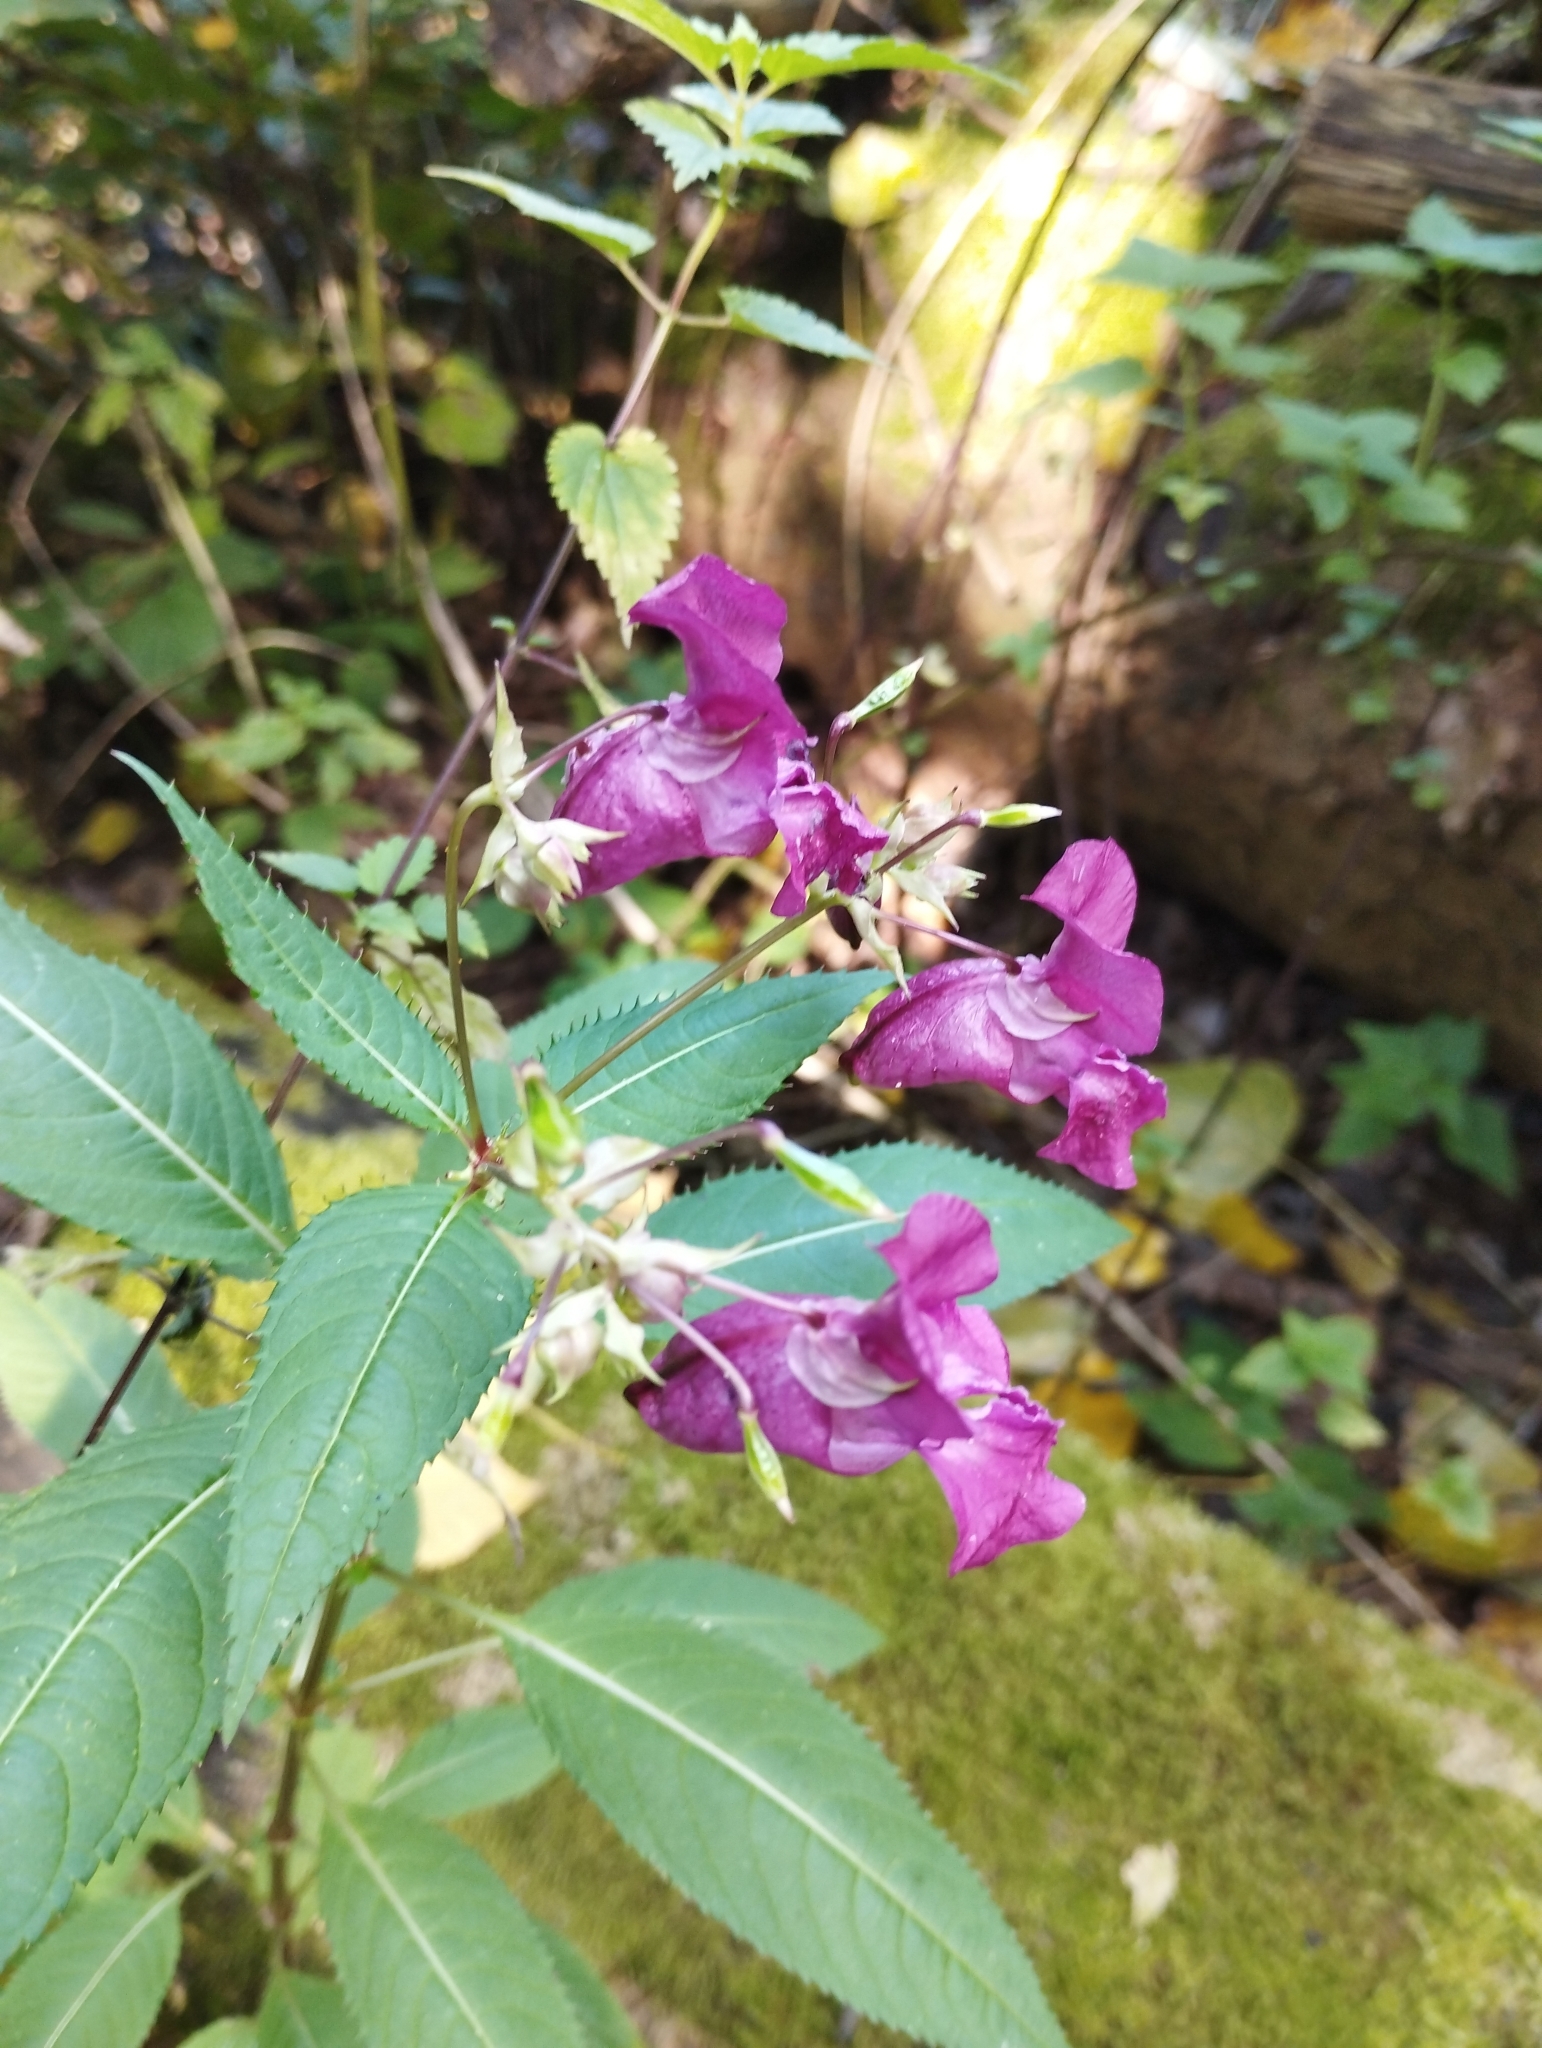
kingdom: Plantae
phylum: Tracheophyta
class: Magnoliopsida
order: Ericales
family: Balsaminaceae
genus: Impatiens
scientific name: Impatiens glandulifera
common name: Himalayan balsam
